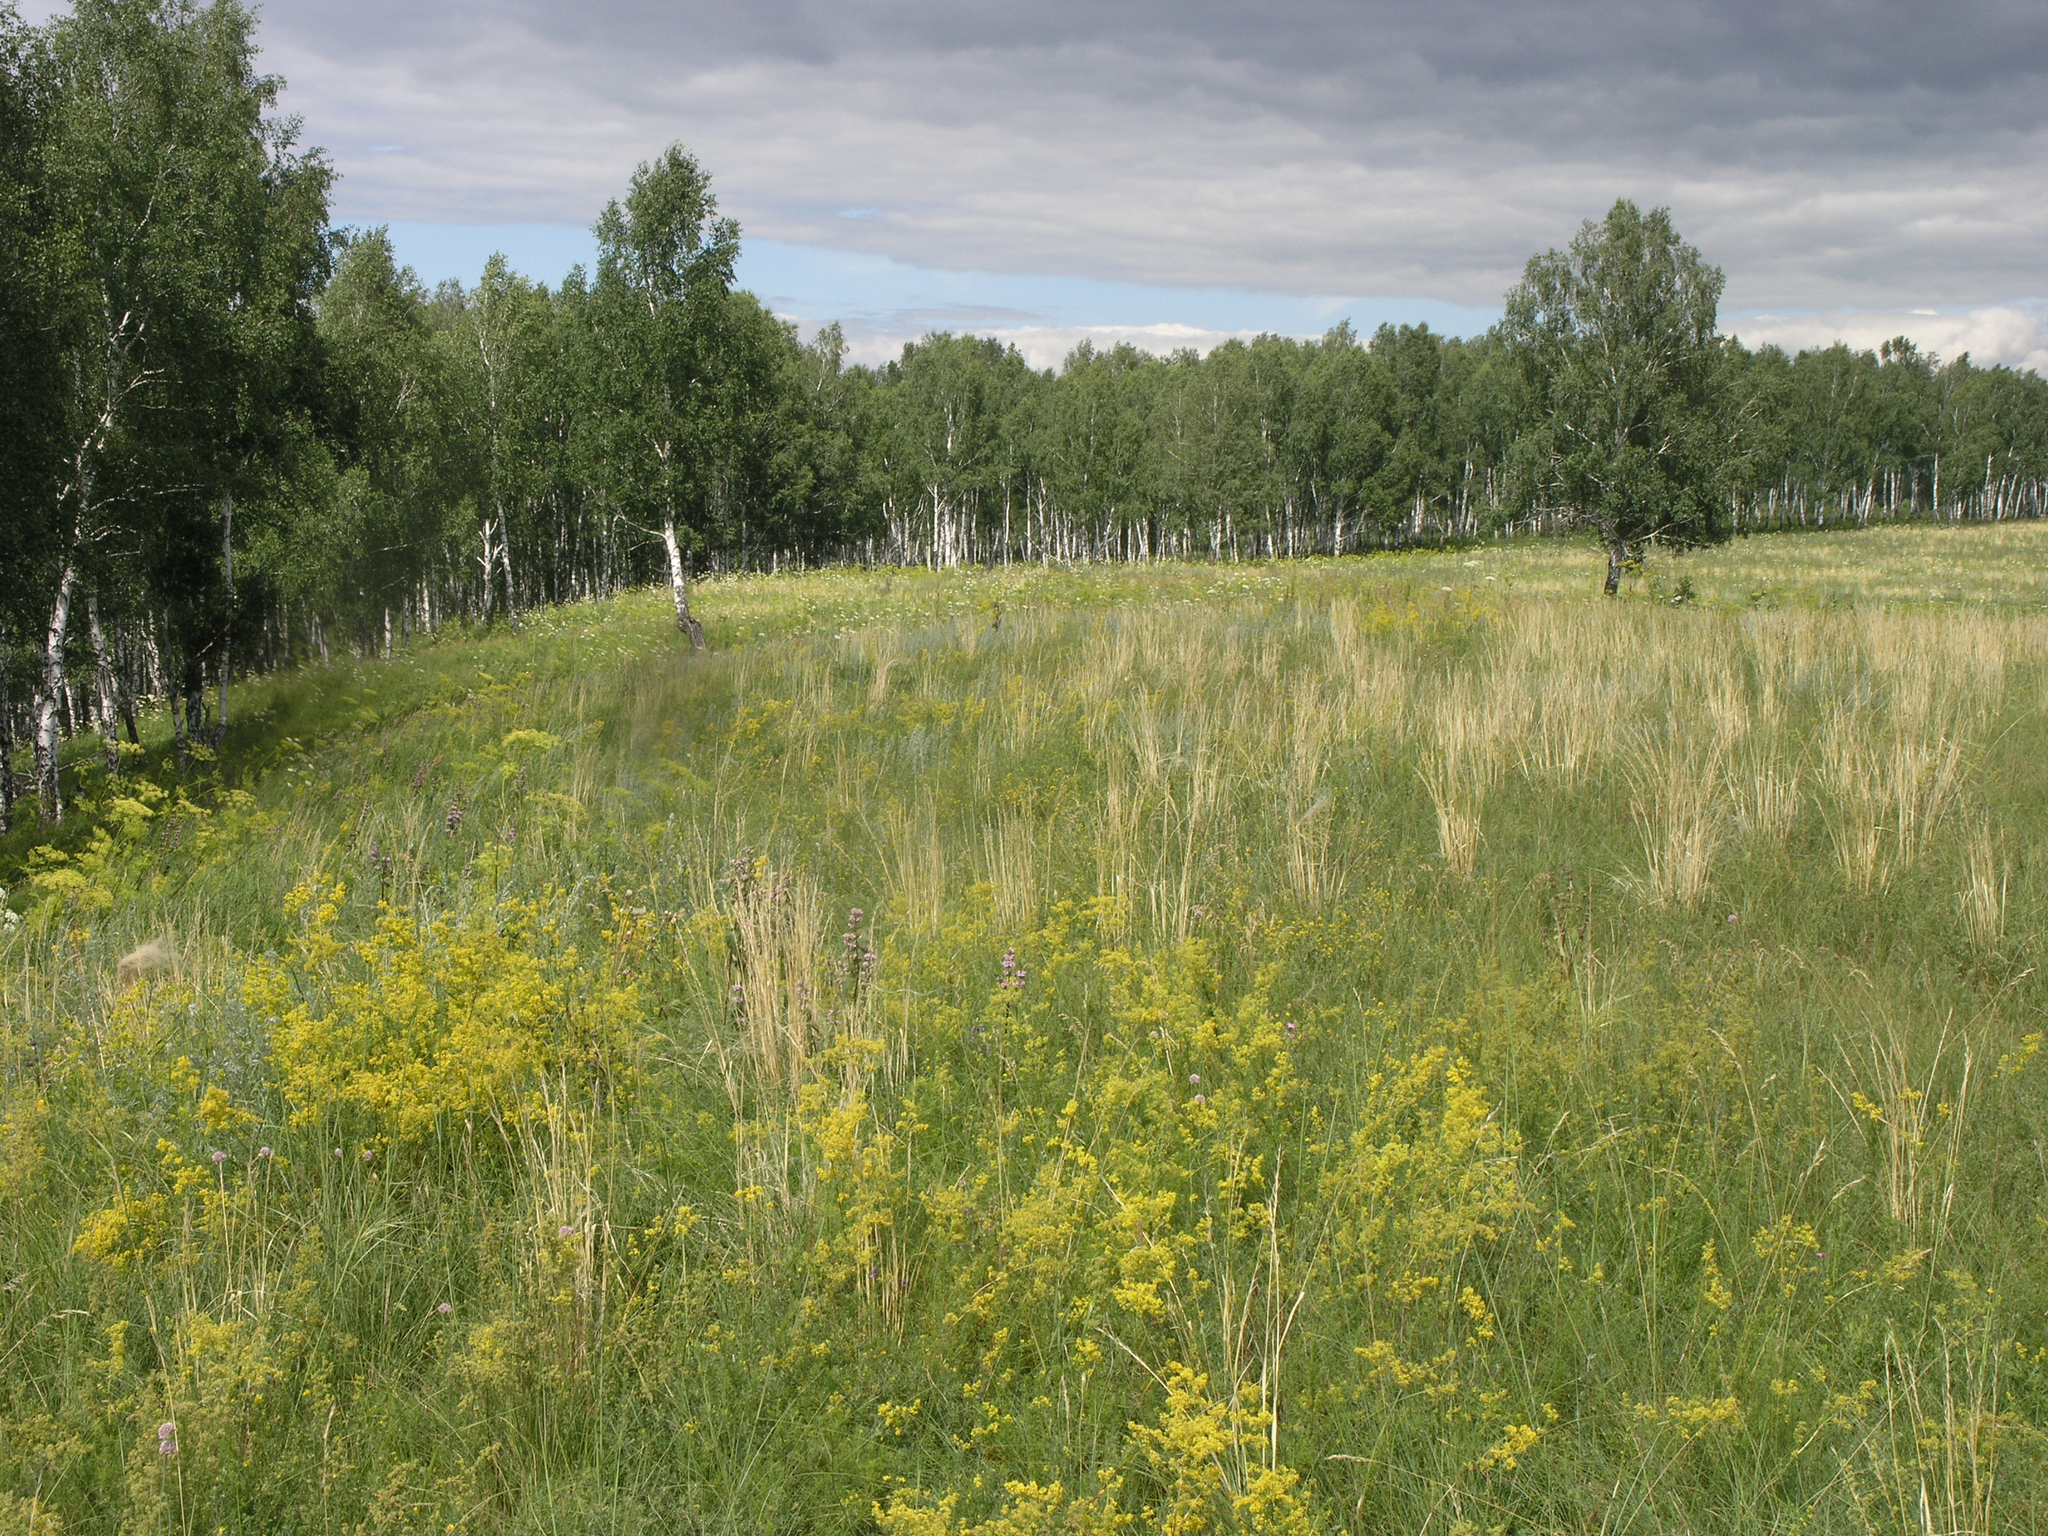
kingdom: Plantae
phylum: Tracheophyta
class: Magnoliopsida
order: Fagales
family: Betulaceae
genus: Betula
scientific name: Betula pendula
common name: Silver birch
